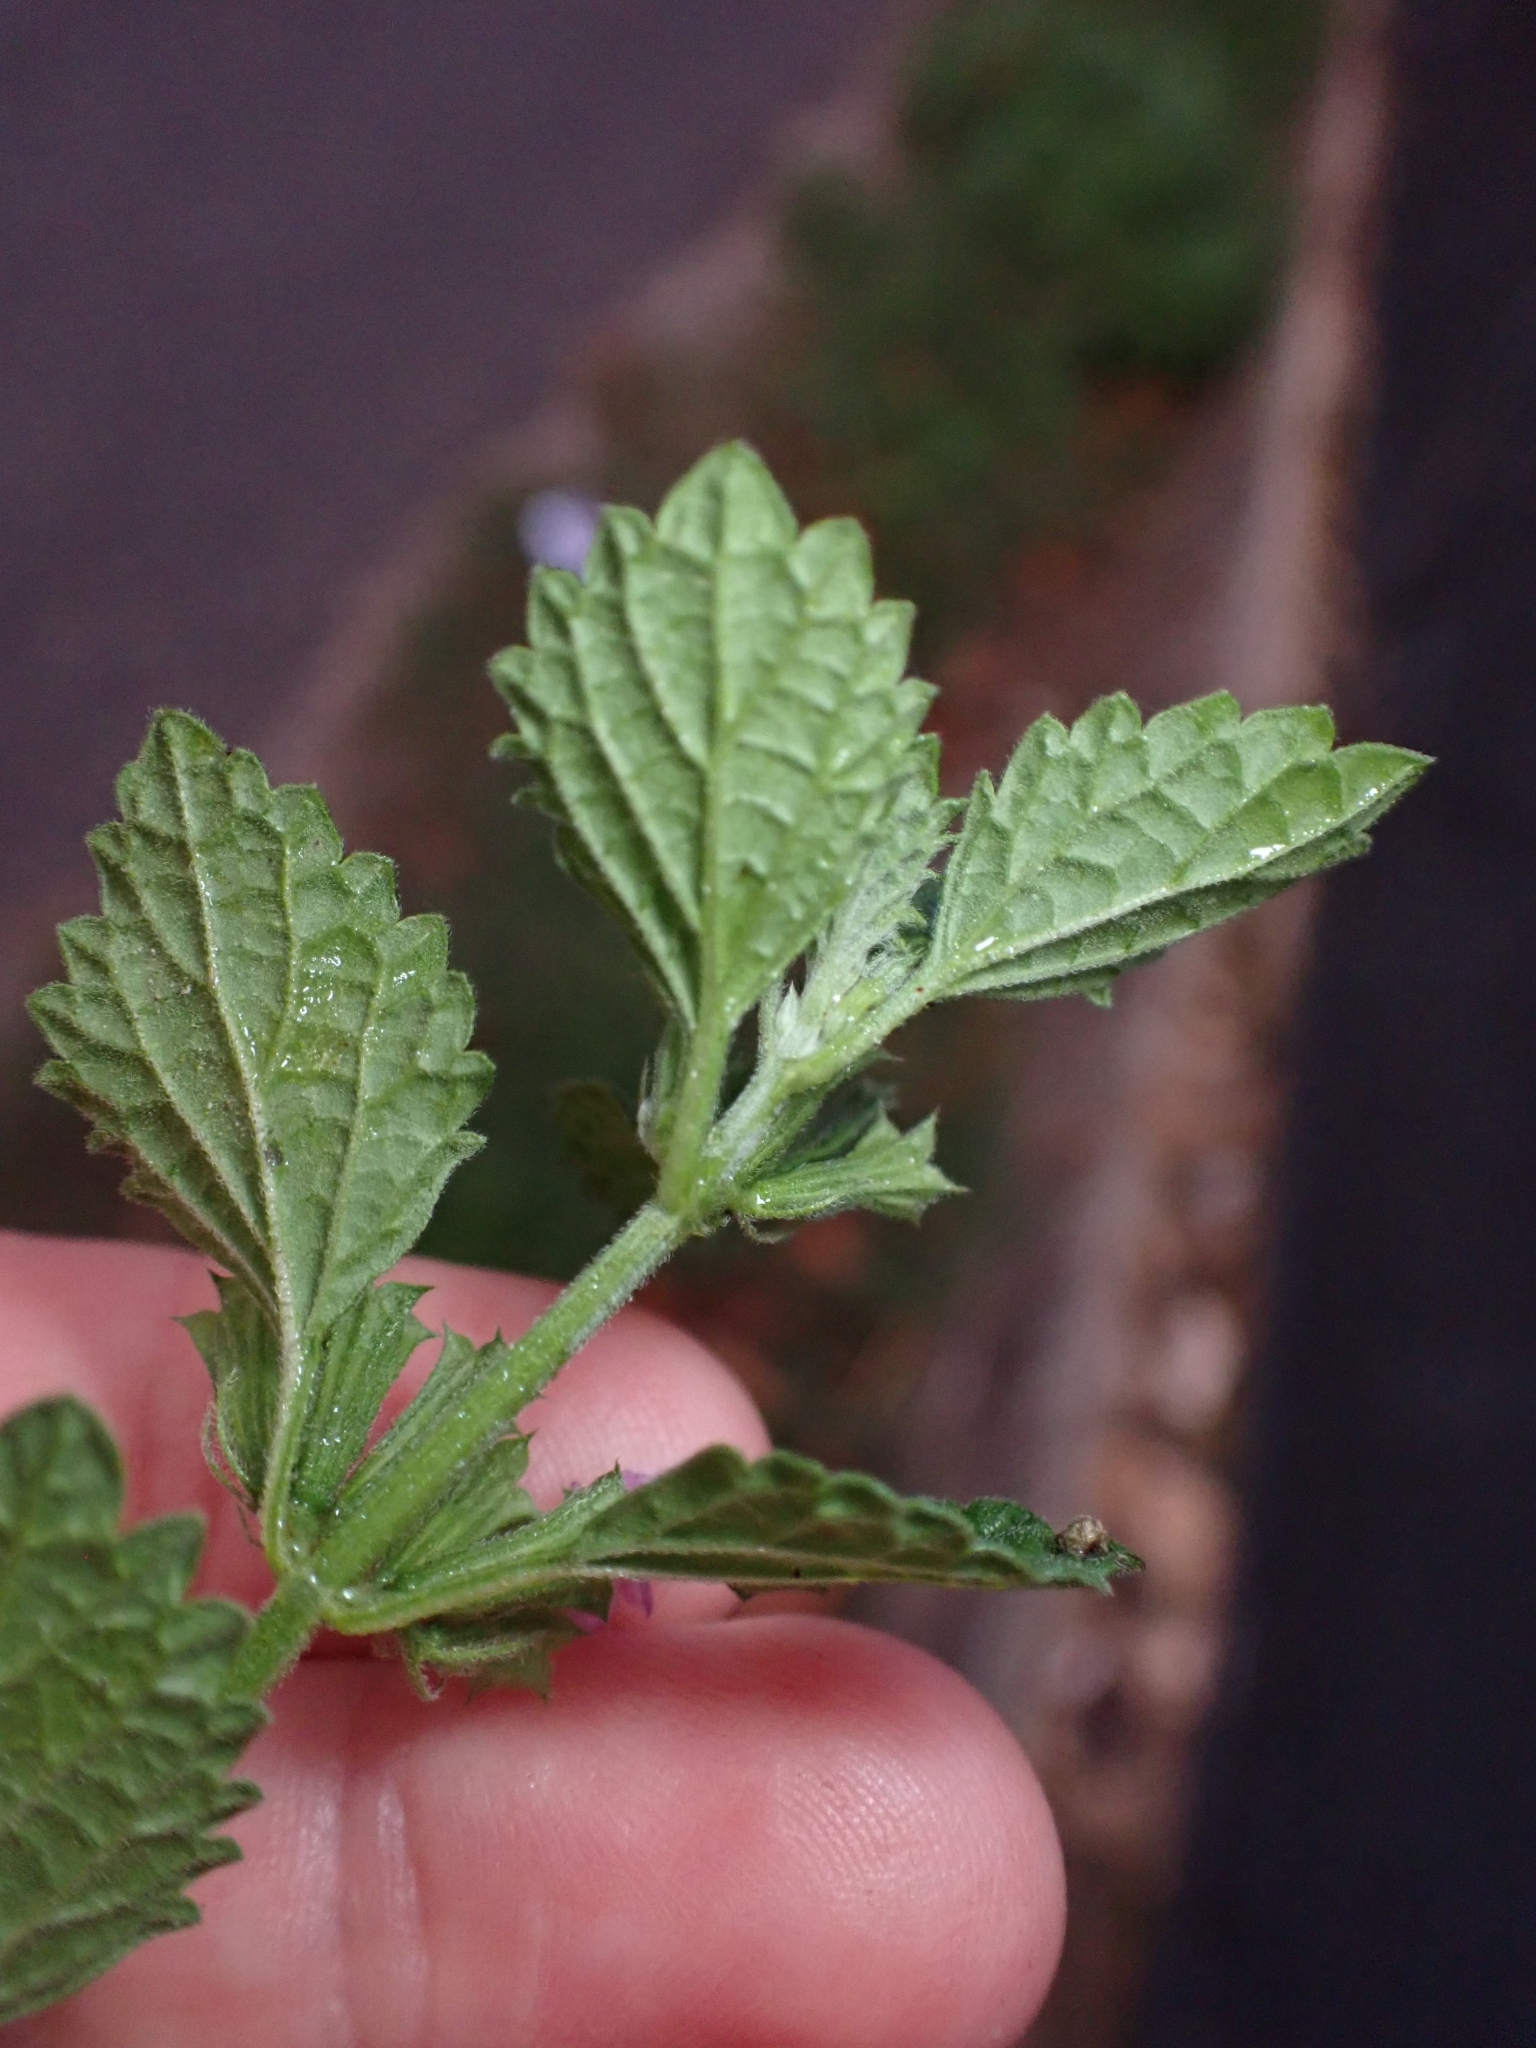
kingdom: Plantae
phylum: Tracheophyta
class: Magnoliopsida
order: Lamiales
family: Lamiaceae
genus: Ballota
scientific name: Ballota nigra
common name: Black horehound
